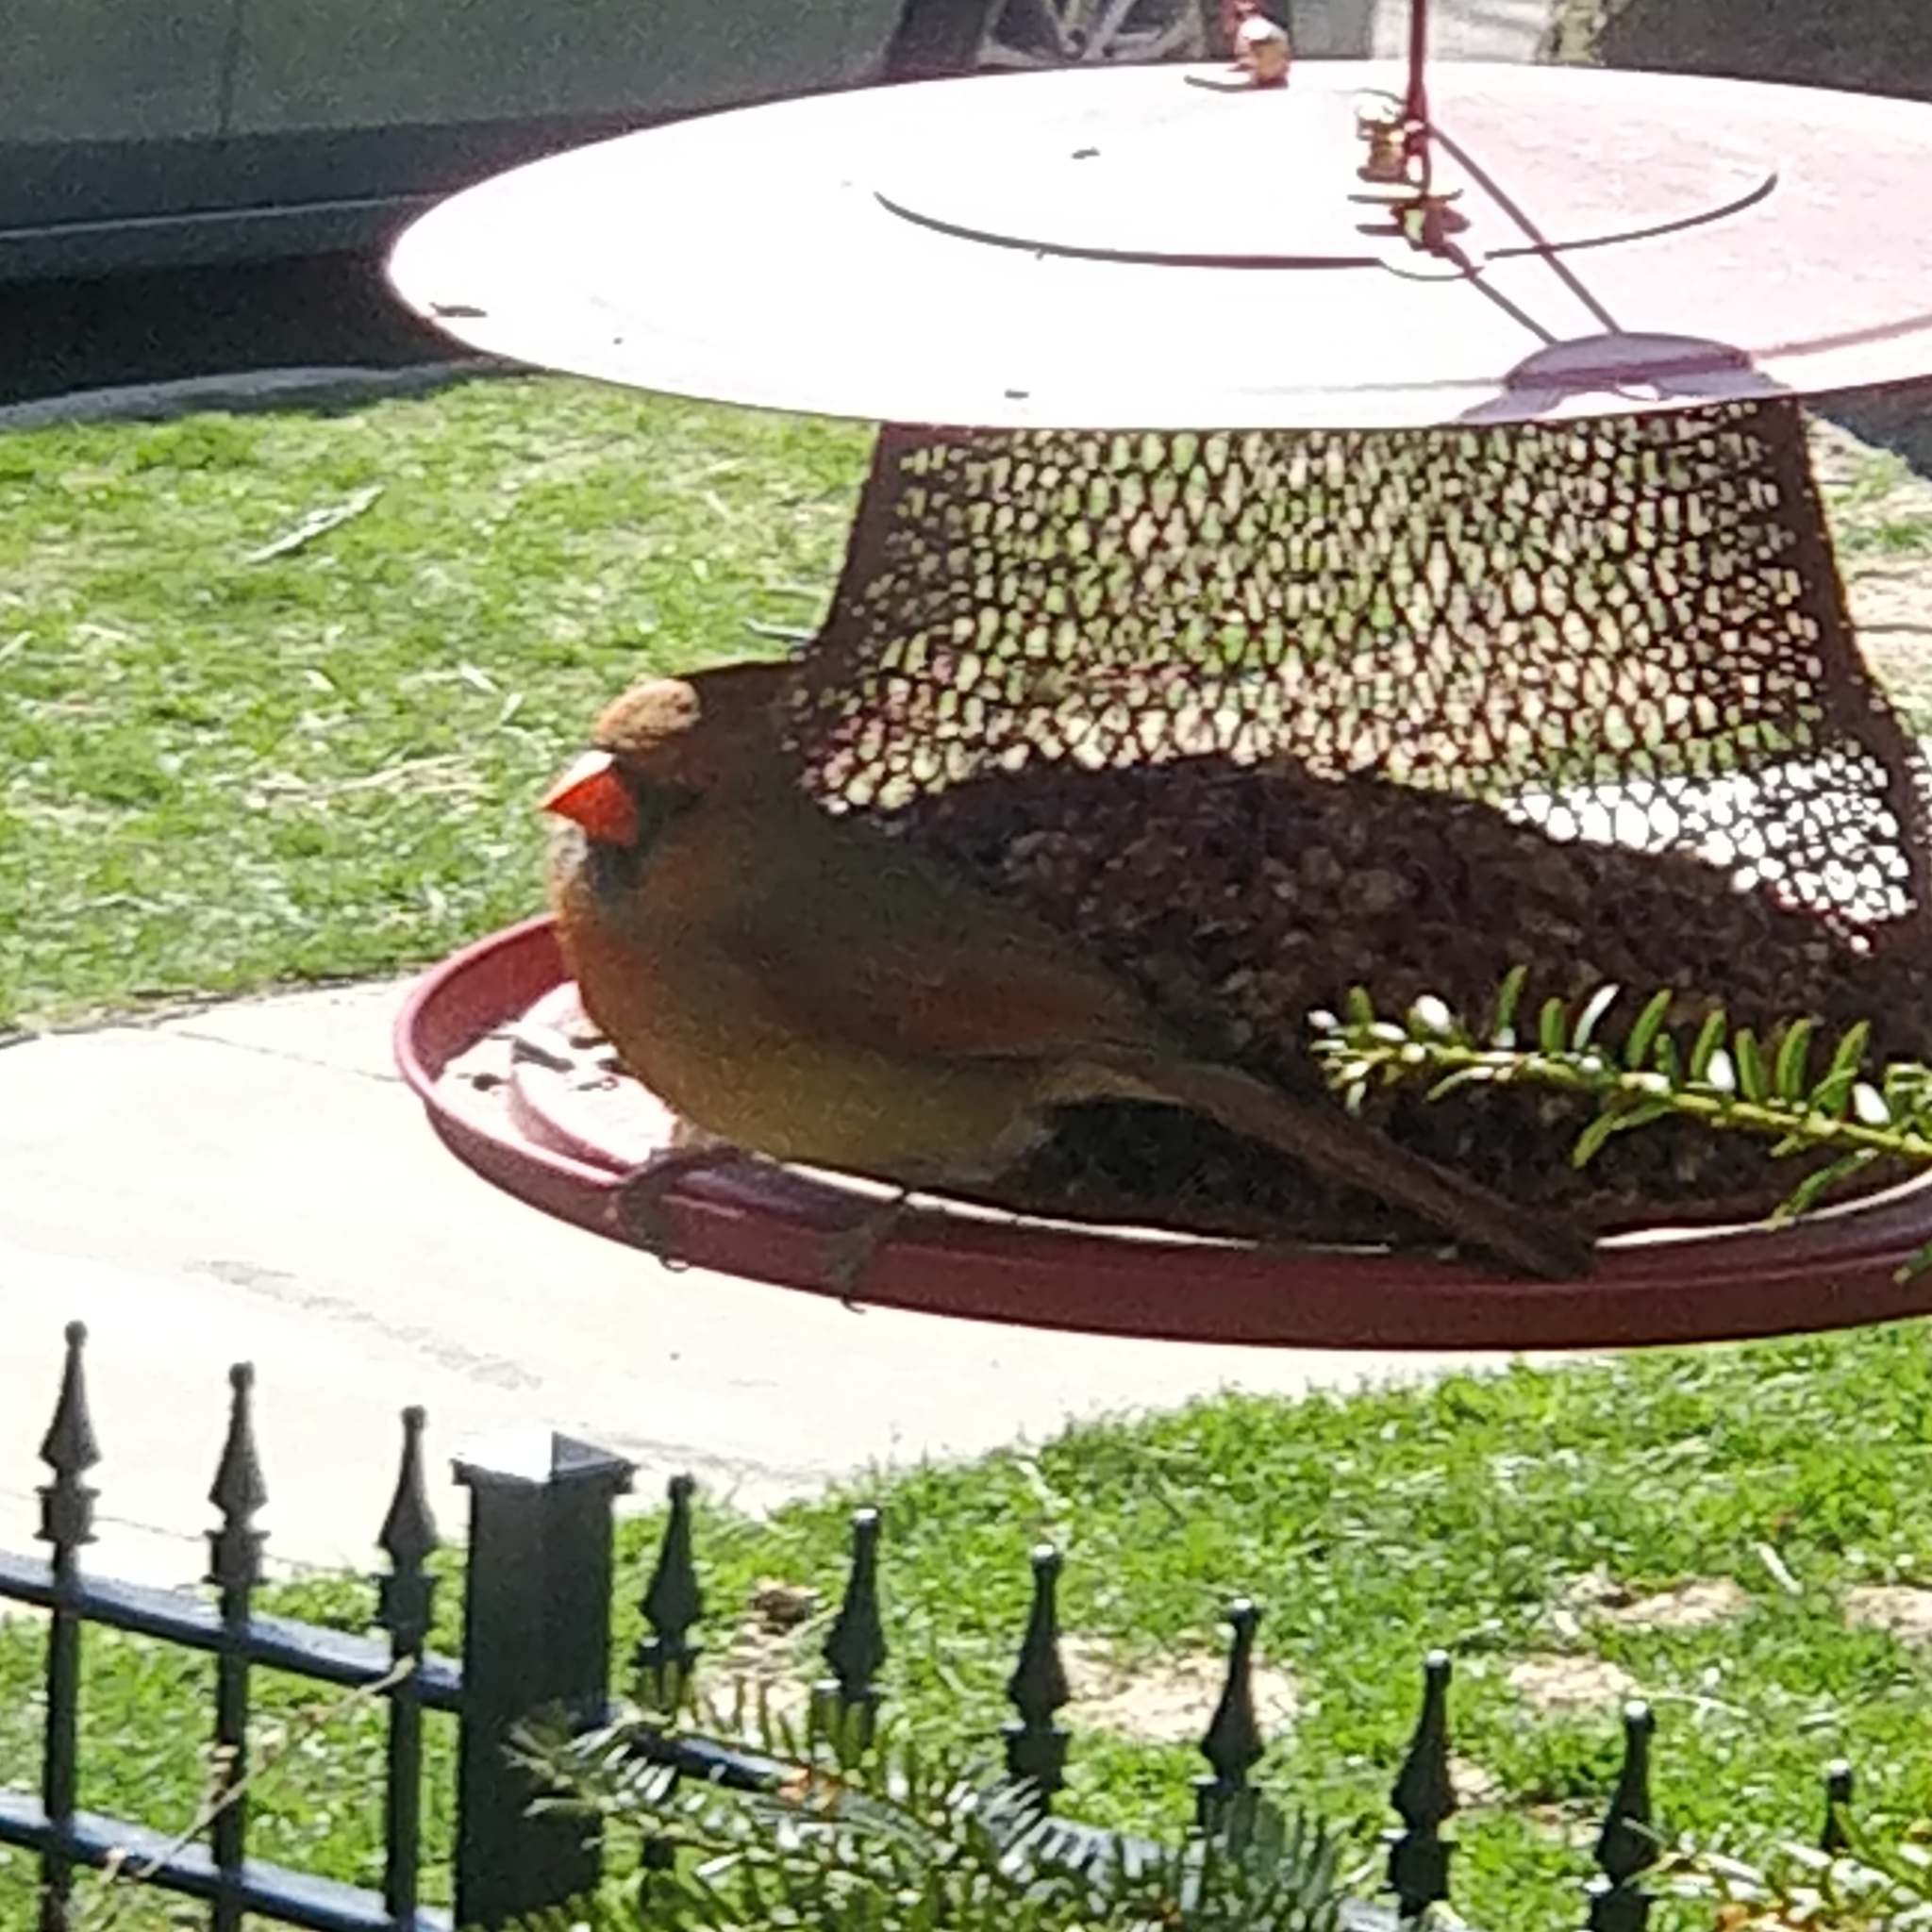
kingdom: Animalia
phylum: Chordata
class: Aves
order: Passeriformes
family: Cardinalidae
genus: Cardinalis
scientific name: Cardinalis cardinalis
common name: Northern cardinal
